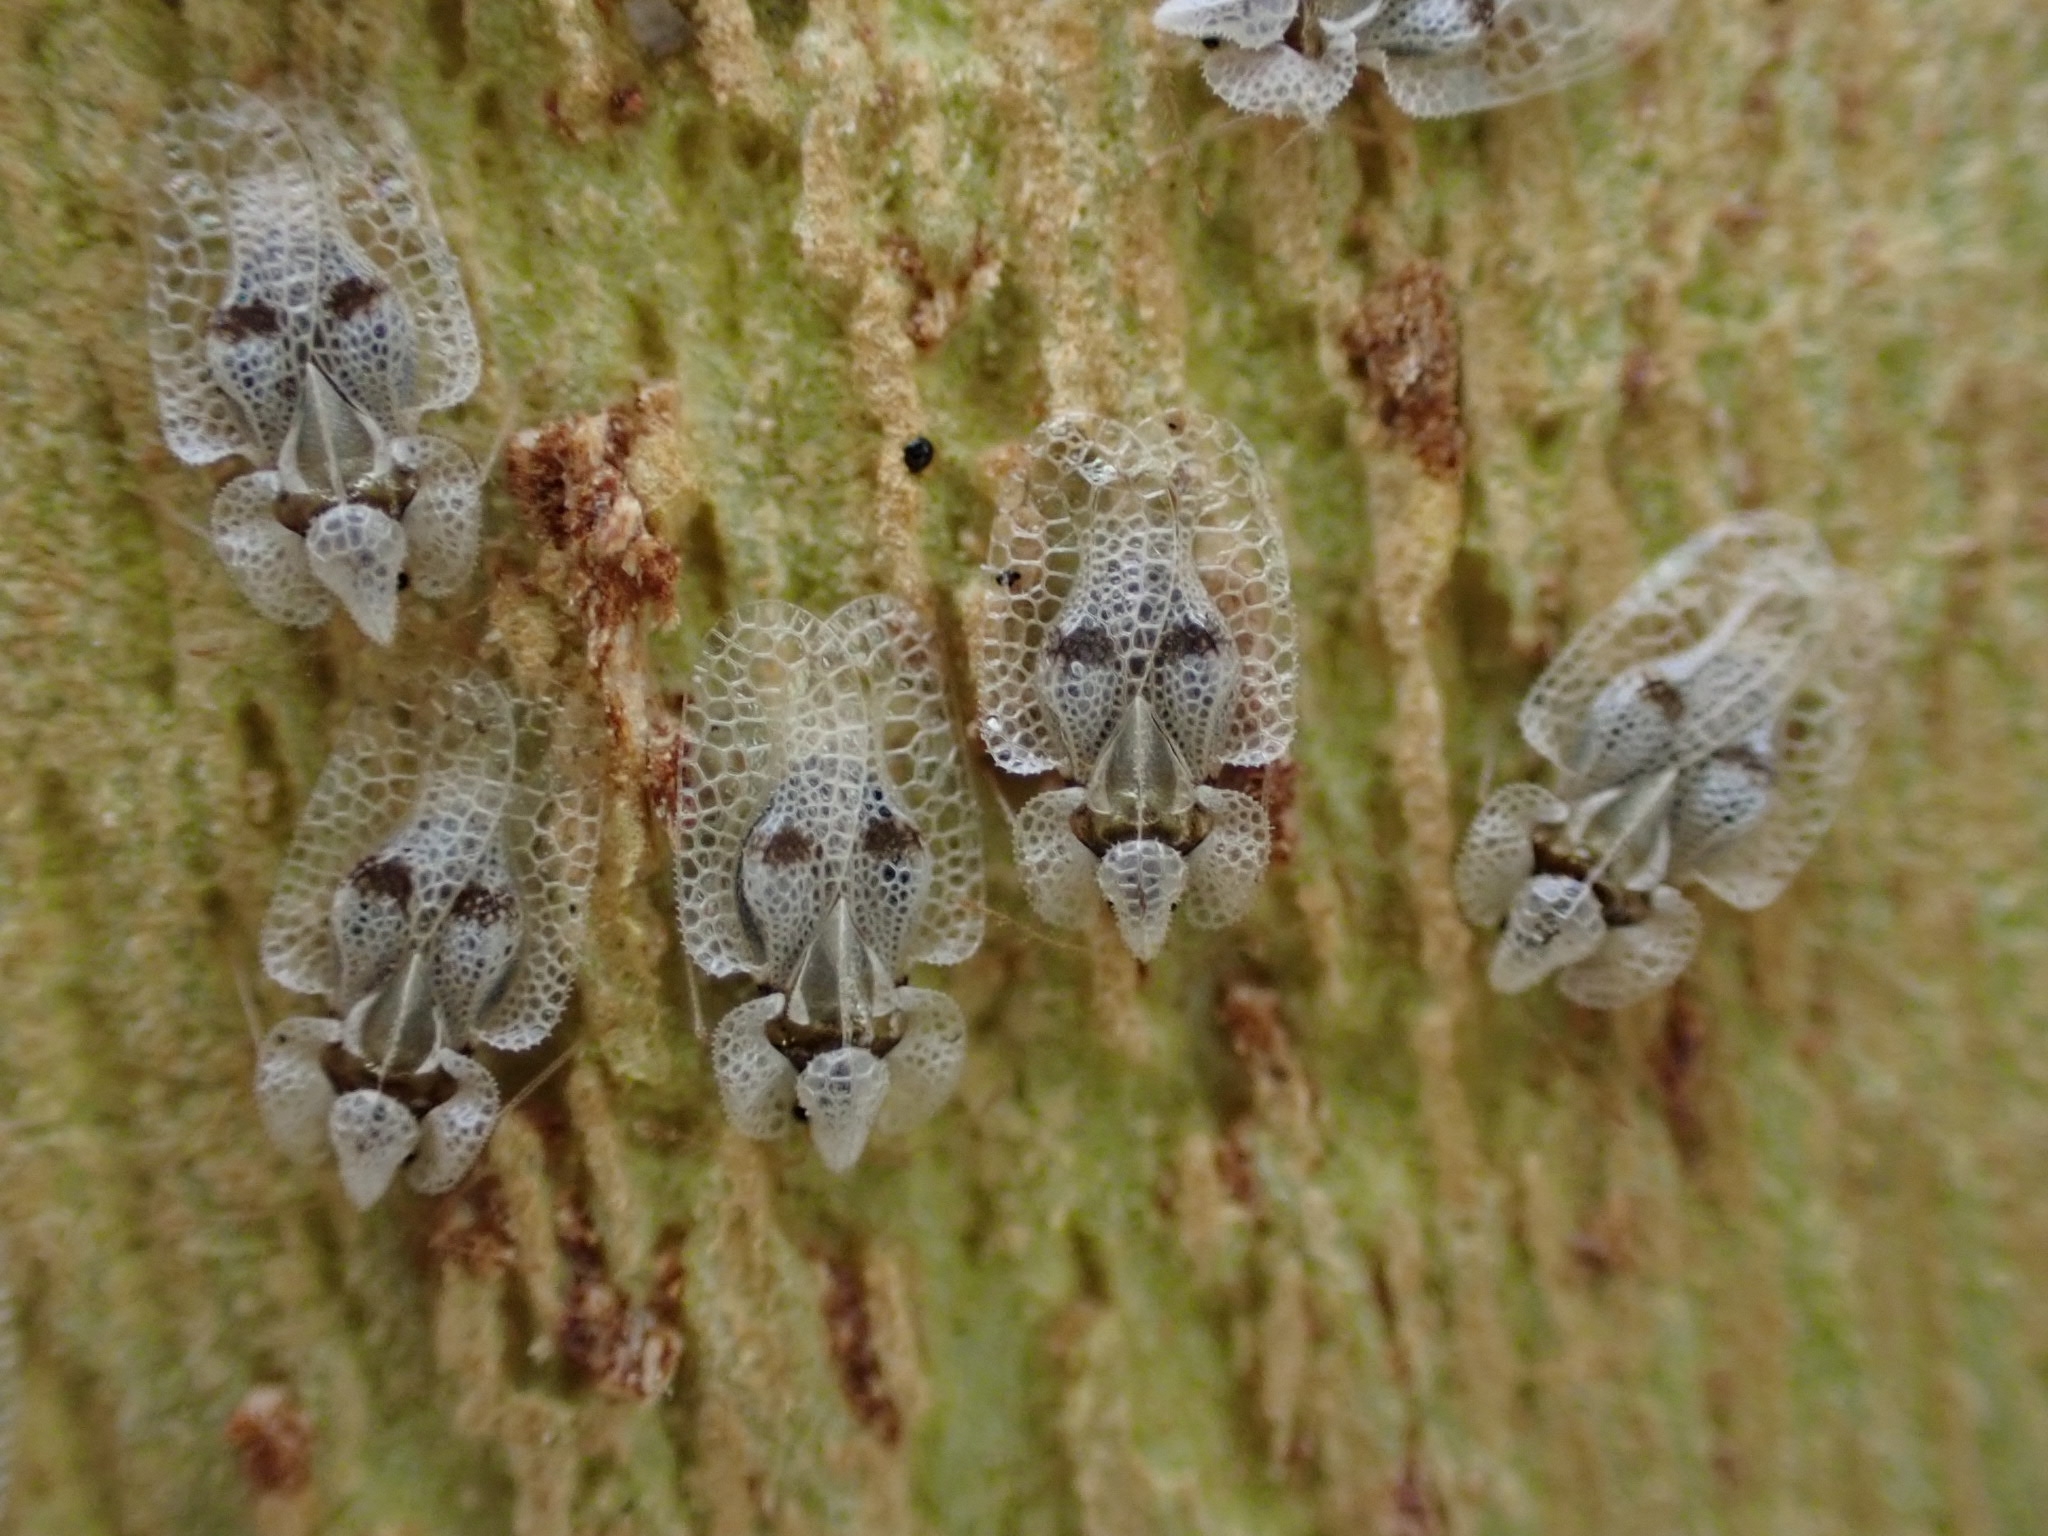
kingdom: Animalia
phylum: Arthropoda
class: Insecta
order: Hemiptera
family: Tingidae
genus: Corythucha
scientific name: Corythucha ciliata
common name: Sycamore lace bug
